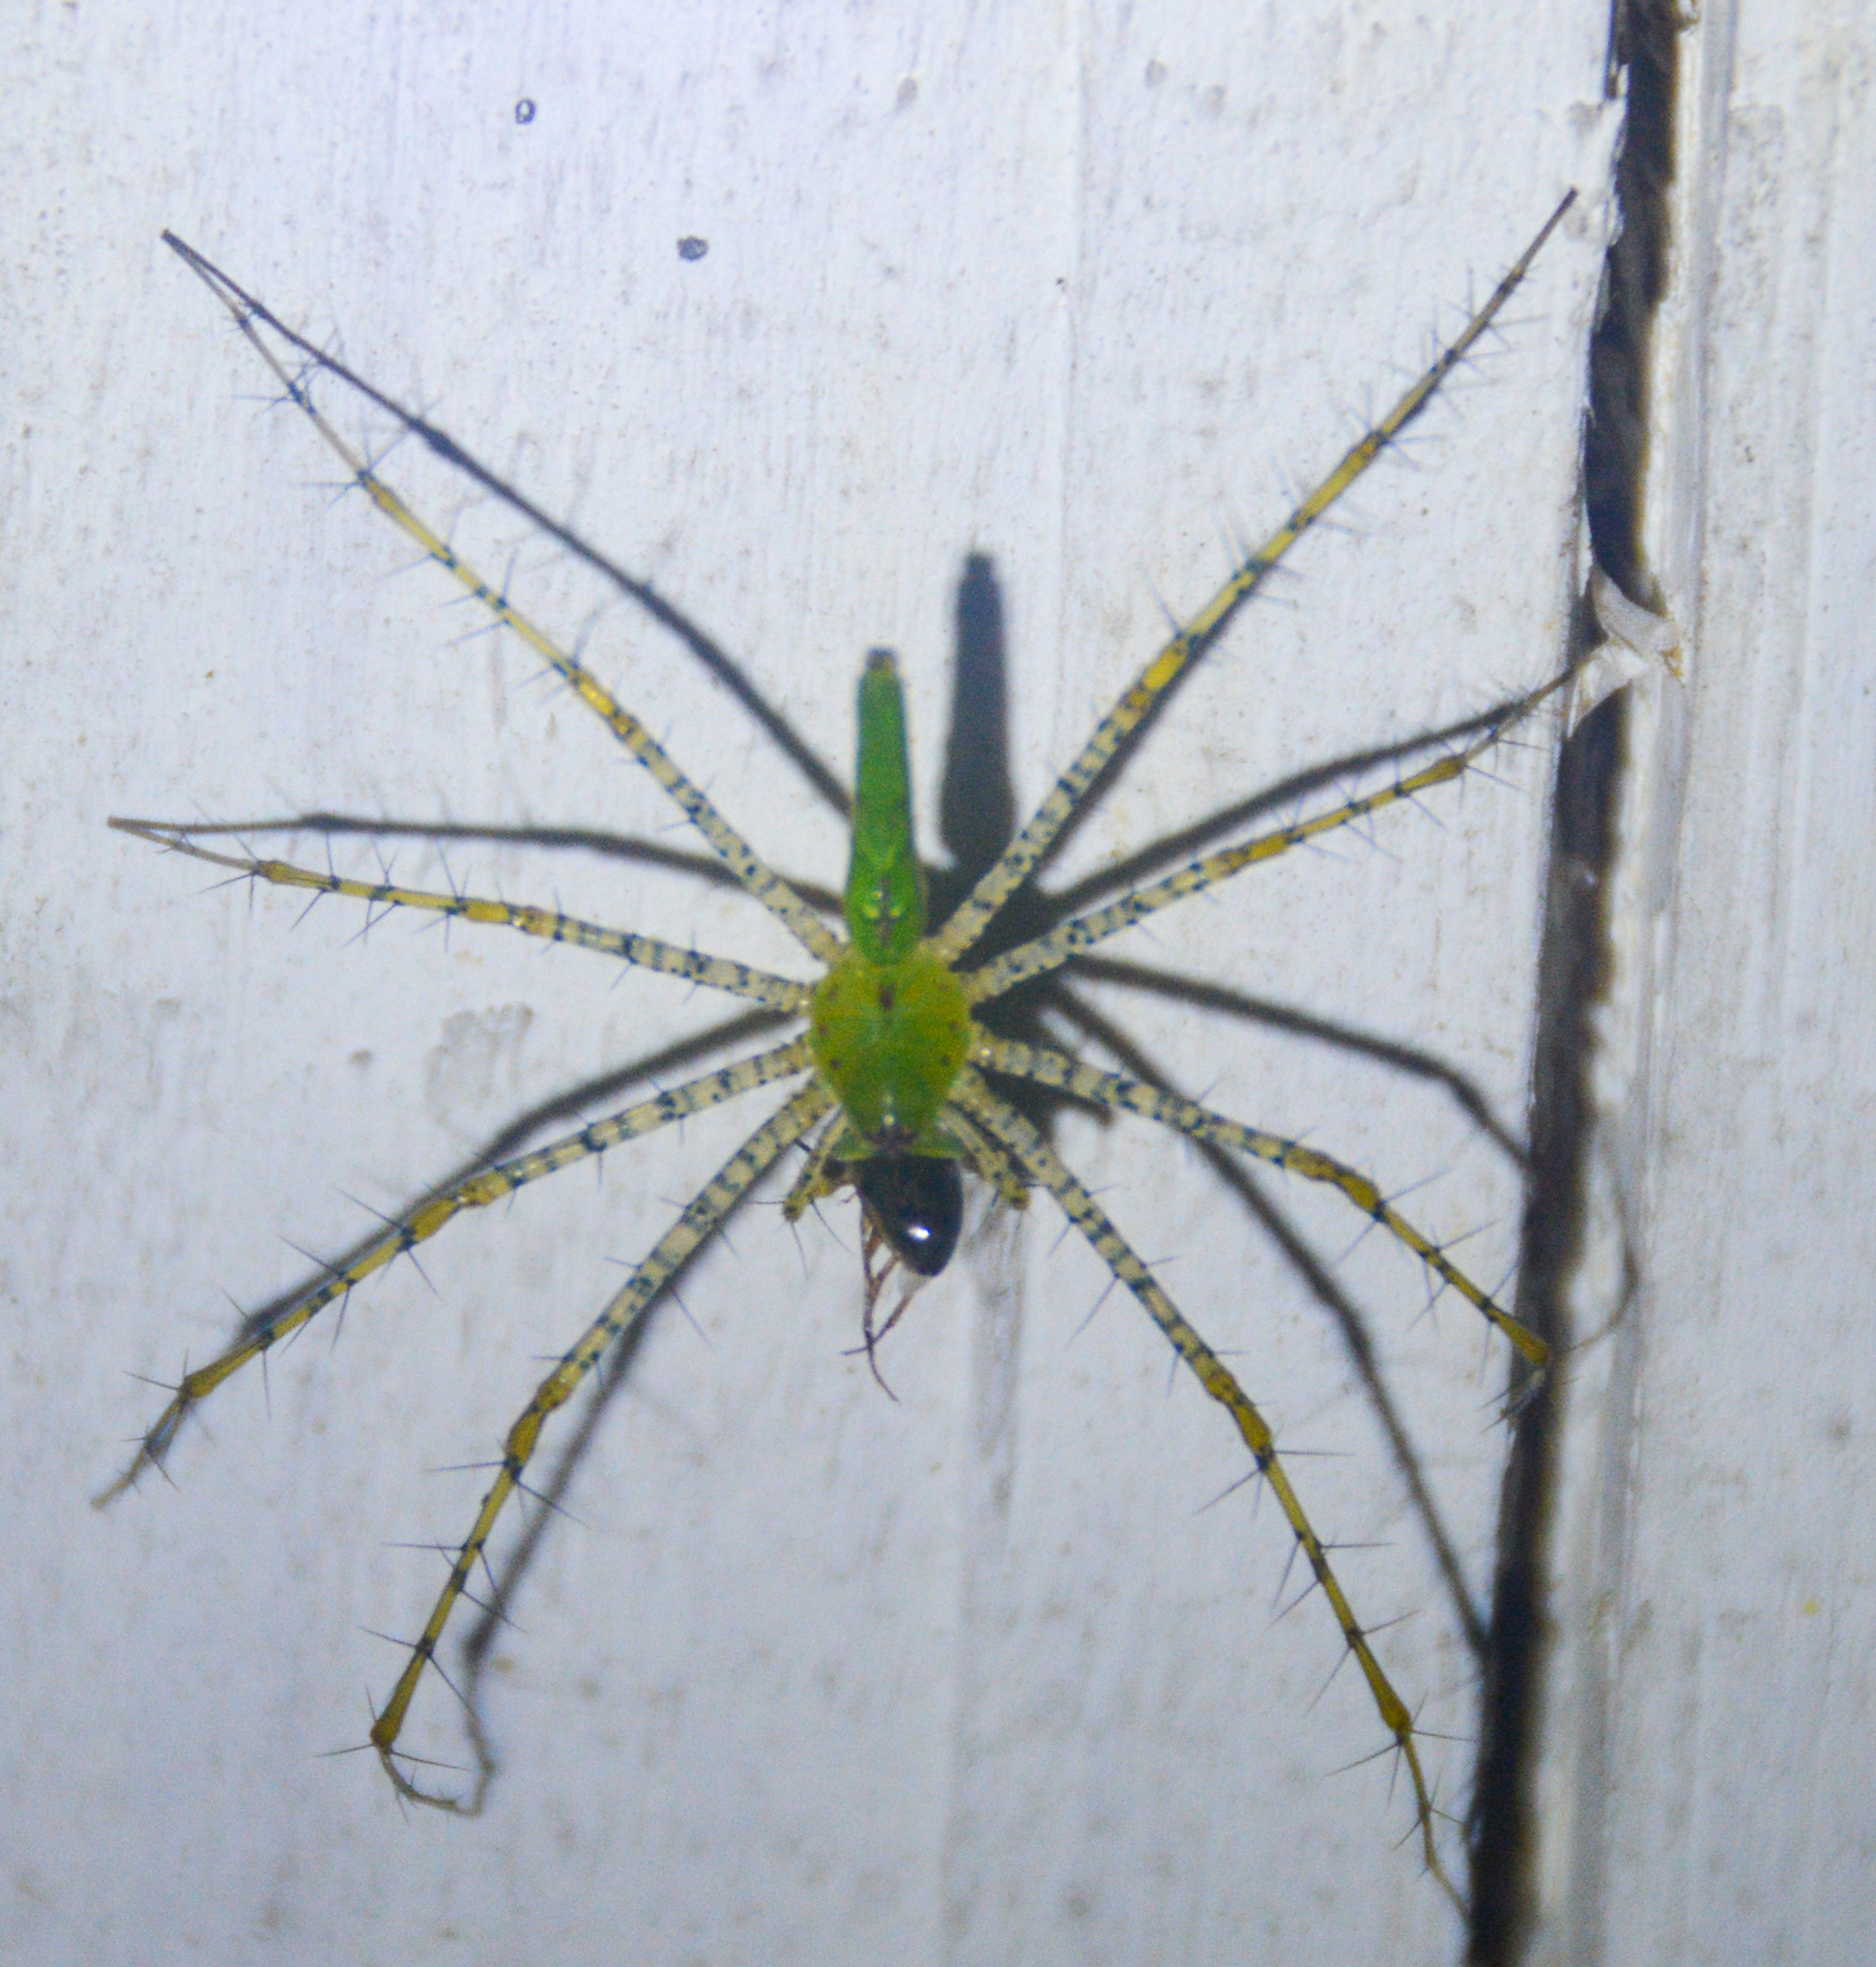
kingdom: Animalia
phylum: Arthropoda
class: Arachnida
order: Araneae
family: Oxyopidae
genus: Peucetia
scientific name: Peucetia viridans
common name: Lynx spiders
